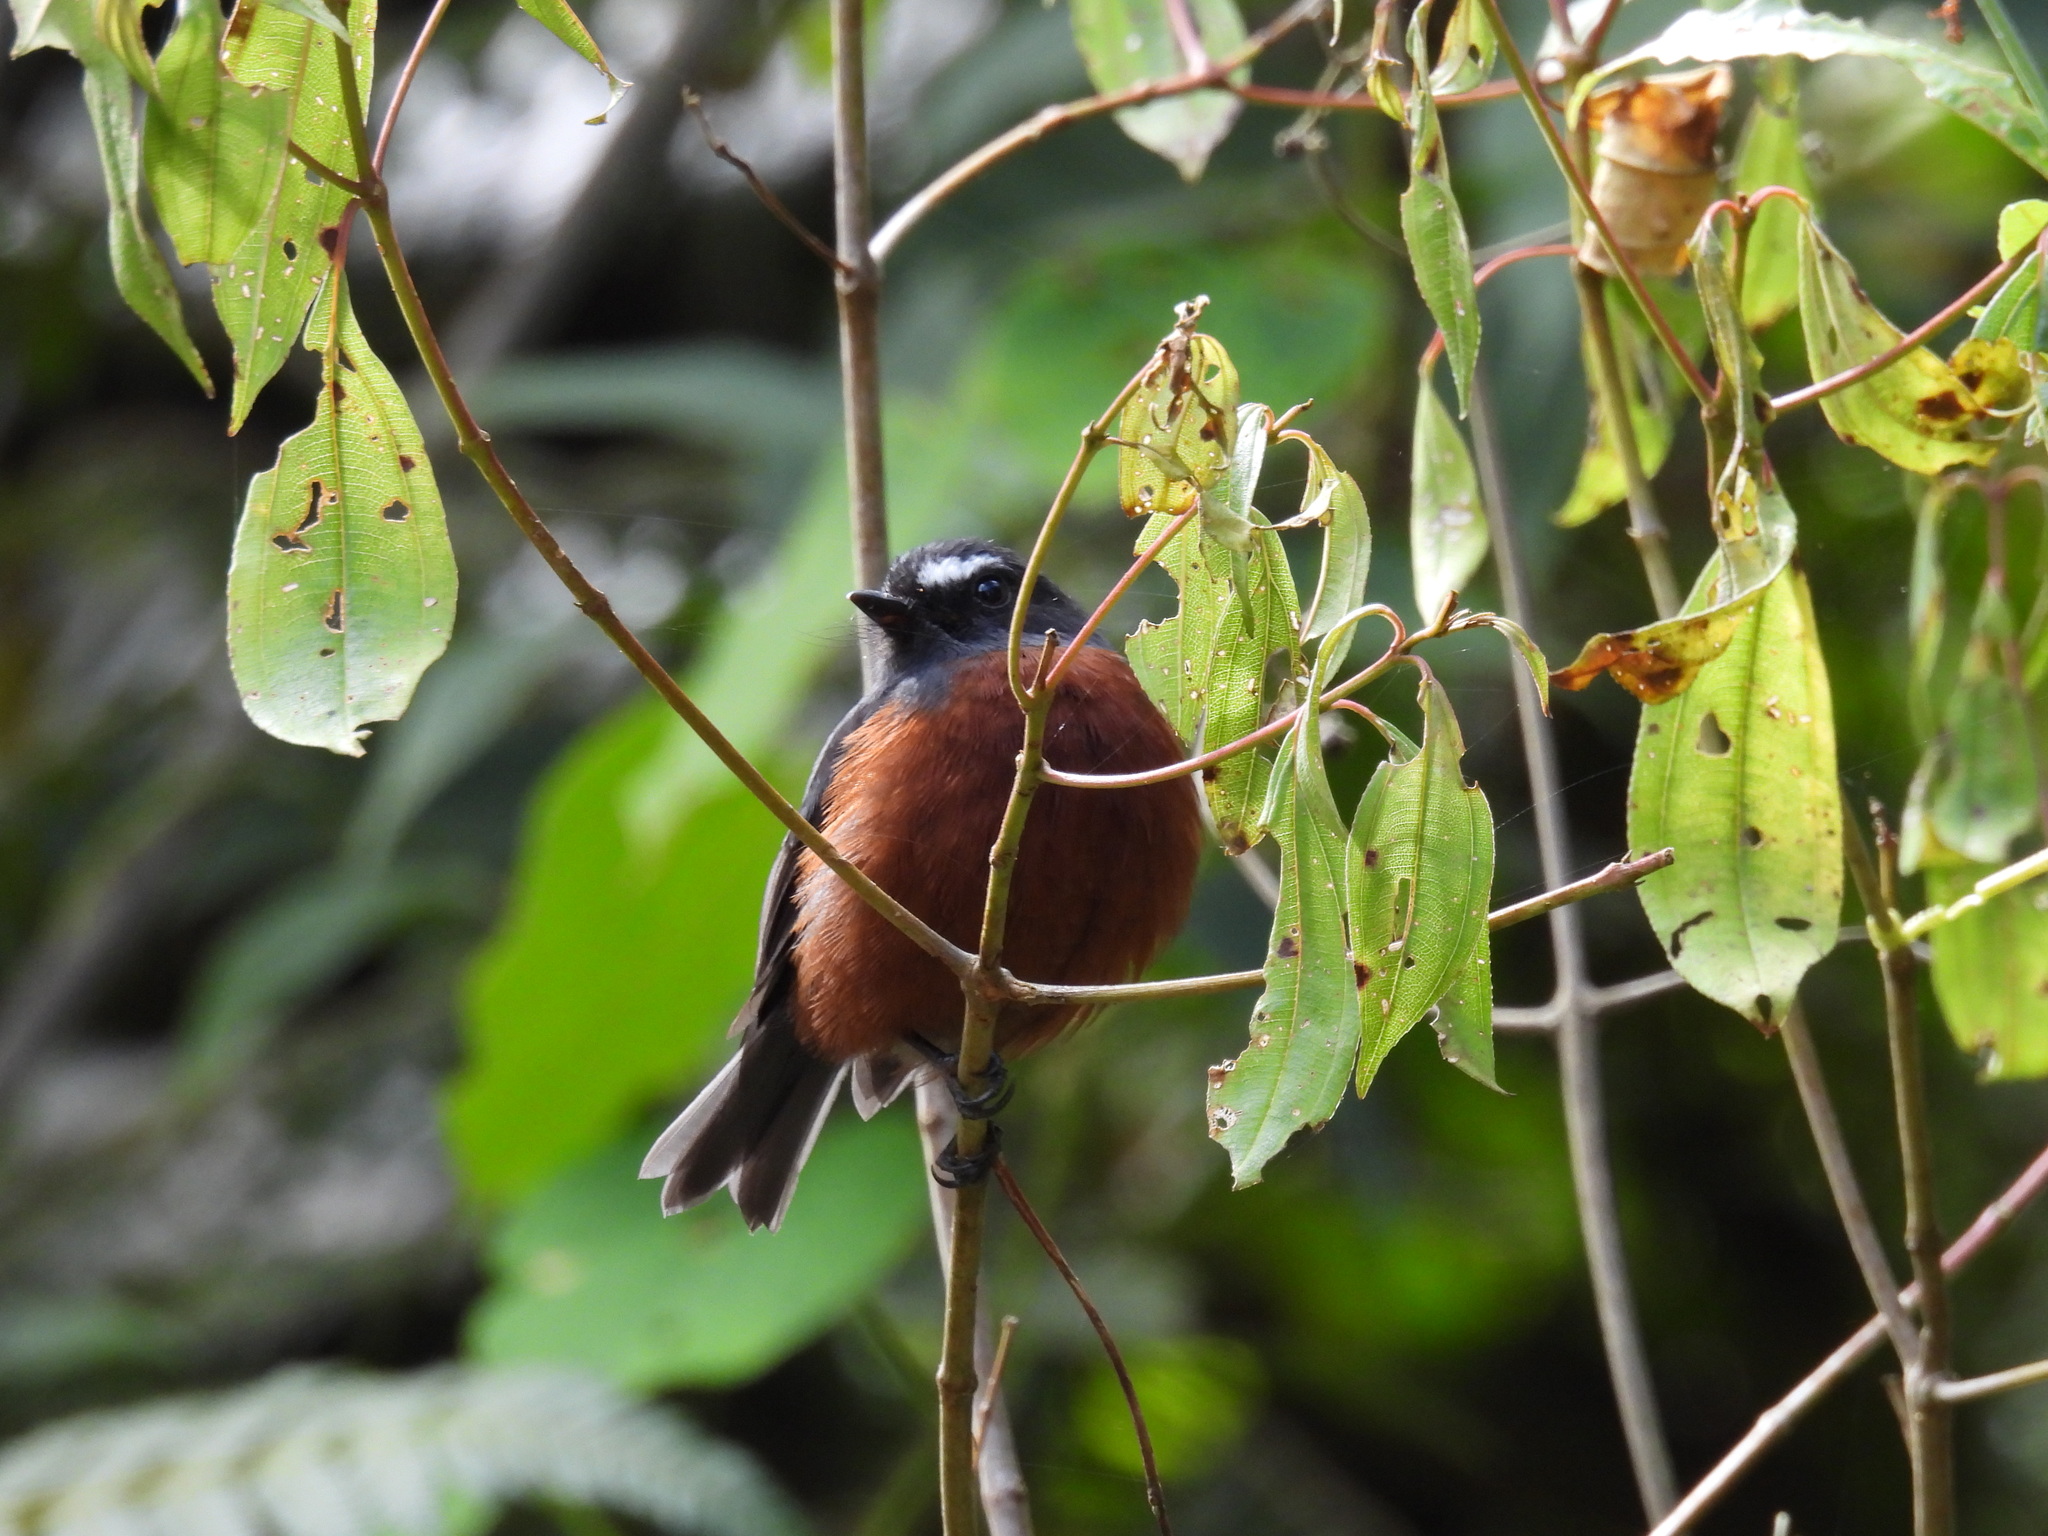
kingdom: Animalia
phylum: Chordata
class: Aves
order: Passeriformes
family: Tyrannidae
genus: Ochthoeca
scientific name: Ochthoeca cinnamomeiventris
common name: Slaty-backed chat-tyrant
